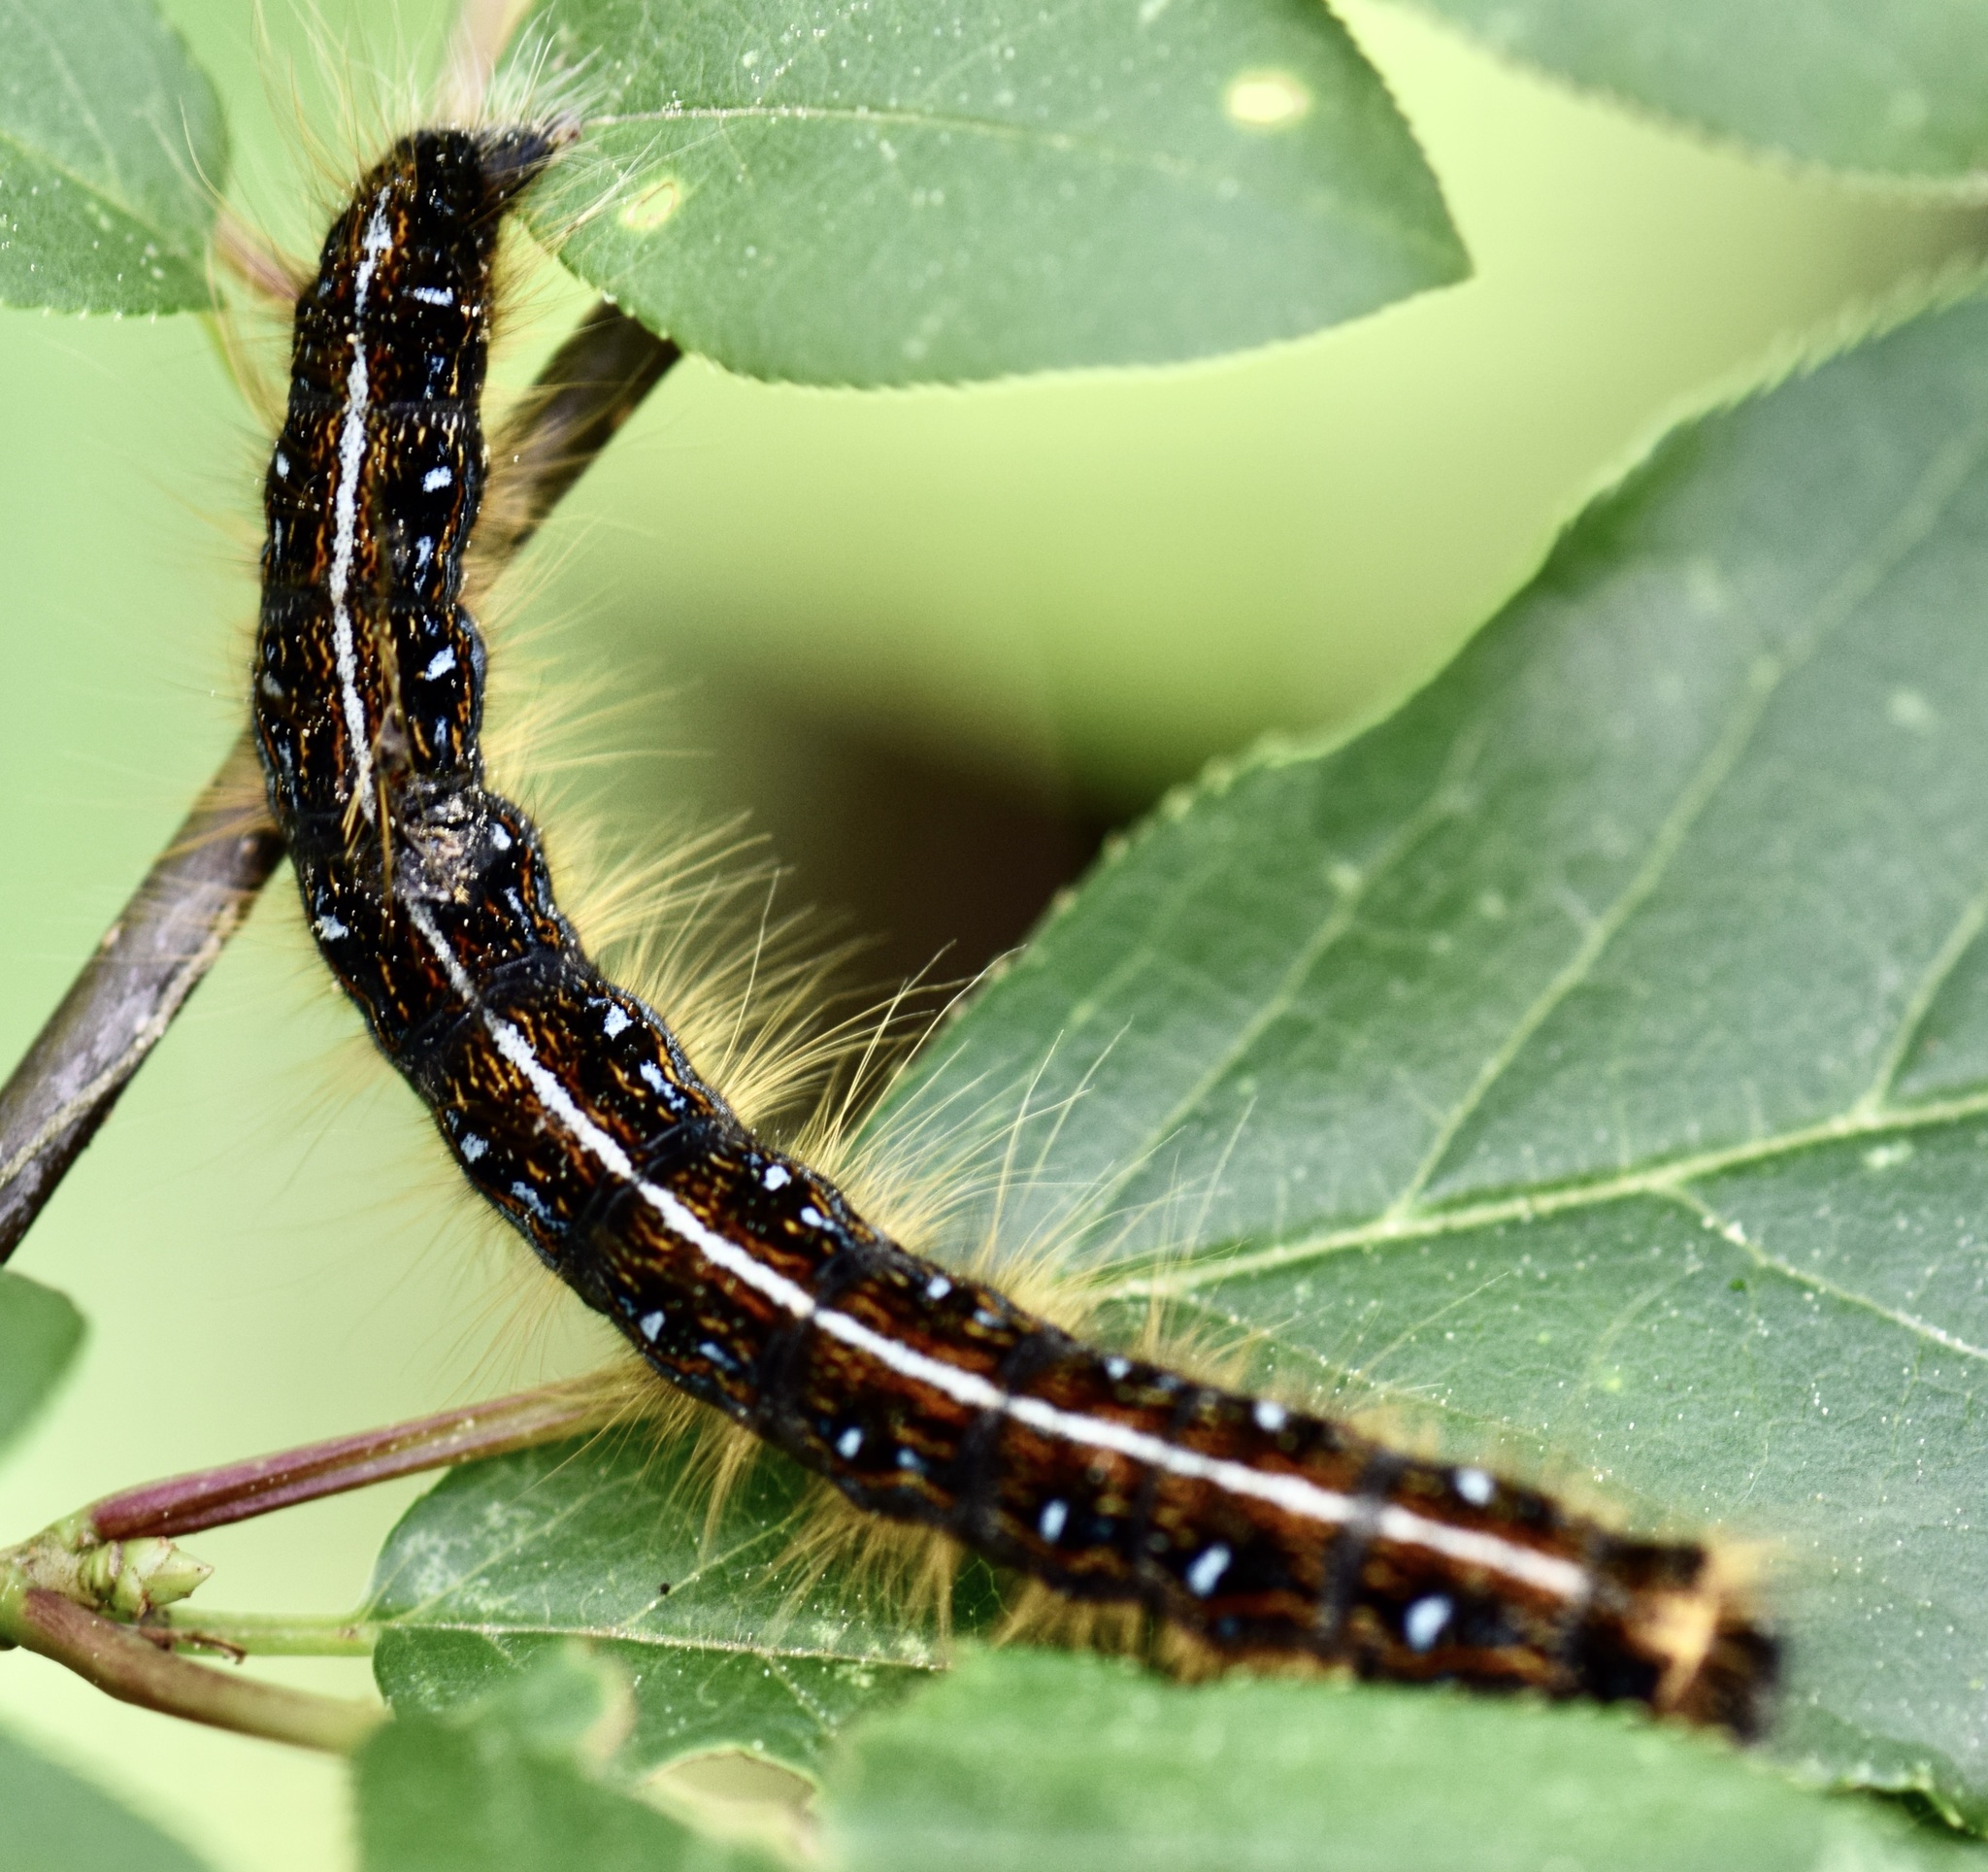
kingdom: Animalia
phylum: Arthropoda
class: Insecta
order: Lepidoptera
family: Lasiocampidae
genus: Malacosoma
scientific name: Malacosoma americana
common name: Eastern tent caterpillar moth
